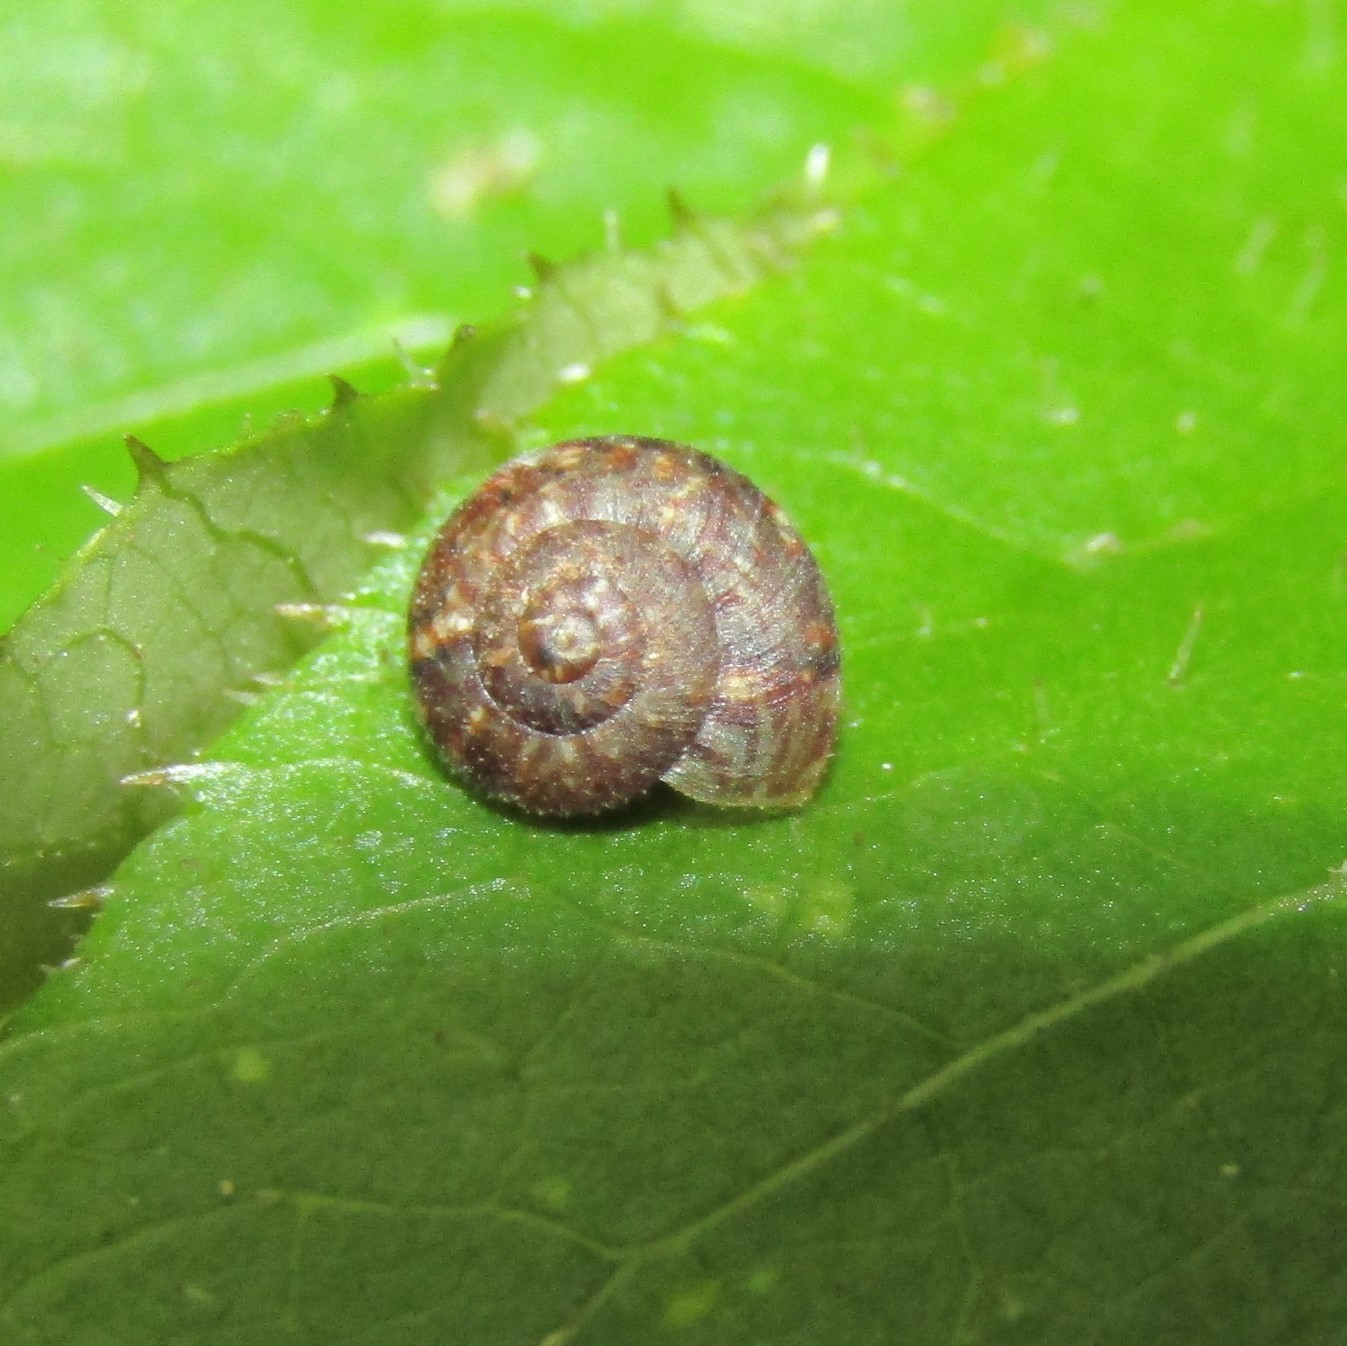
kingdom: Animalia
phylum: Mollusca
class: Gastropoda
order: Stylommatophora
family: Charopidae
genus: Thalassohelix
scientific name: Thalassohelix zelandiae
